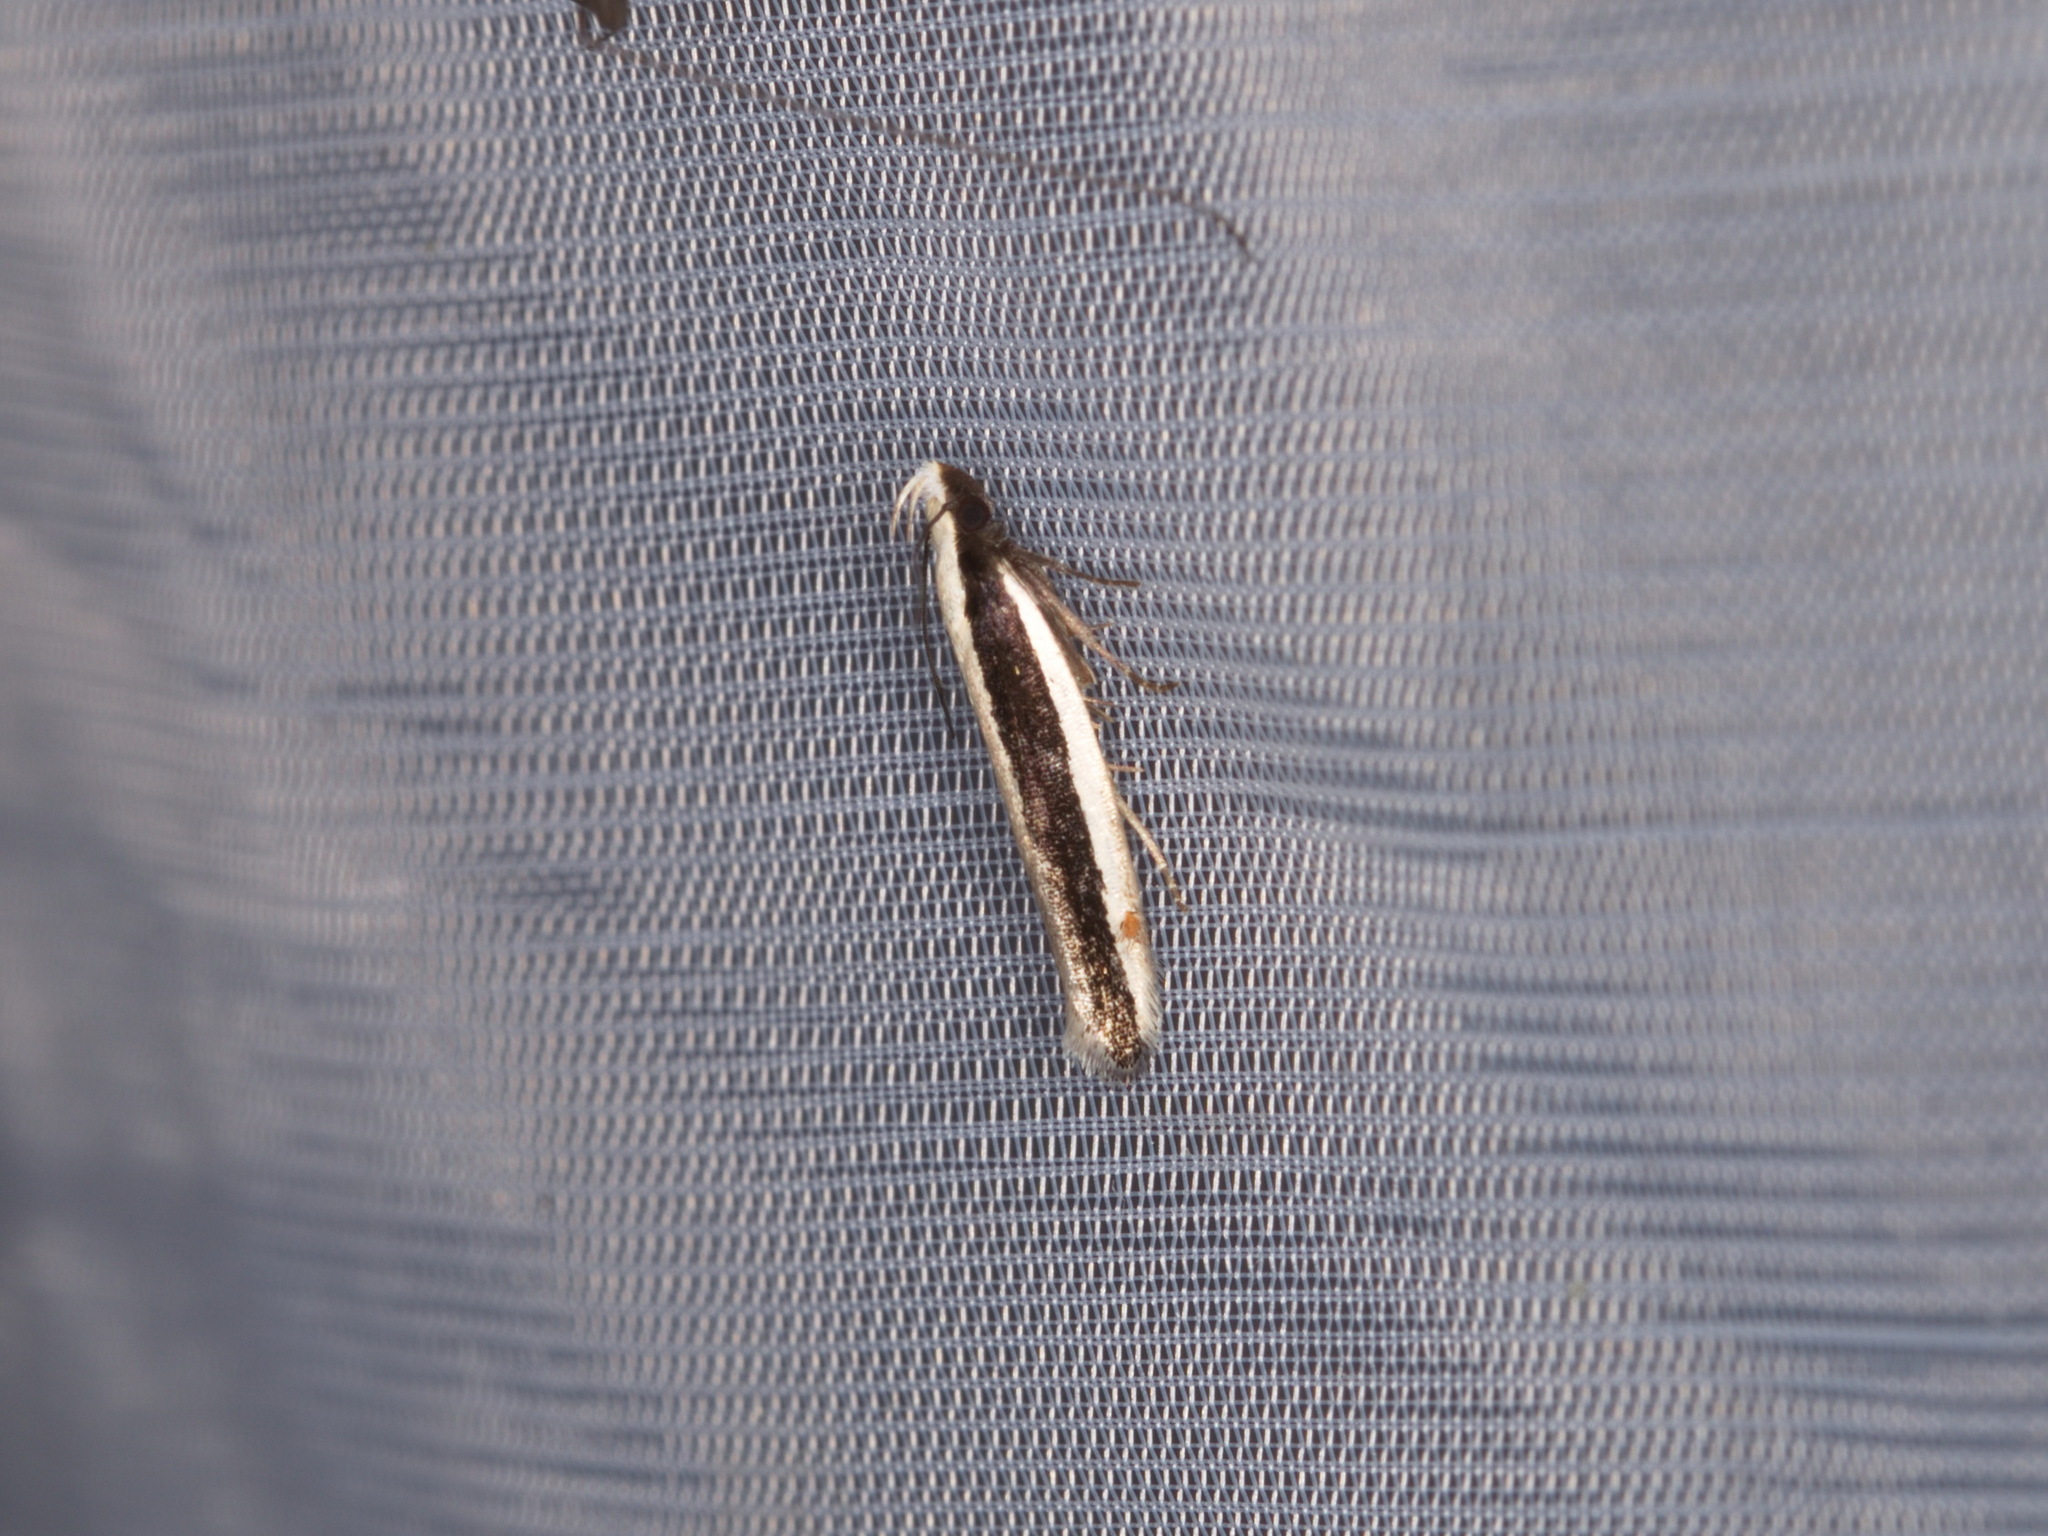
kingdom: Animalia
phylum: Arthropoda
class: Insecta
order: Lepidoptera
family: Gelechiidae
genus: Macrenches
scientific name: Macrenches clerica
